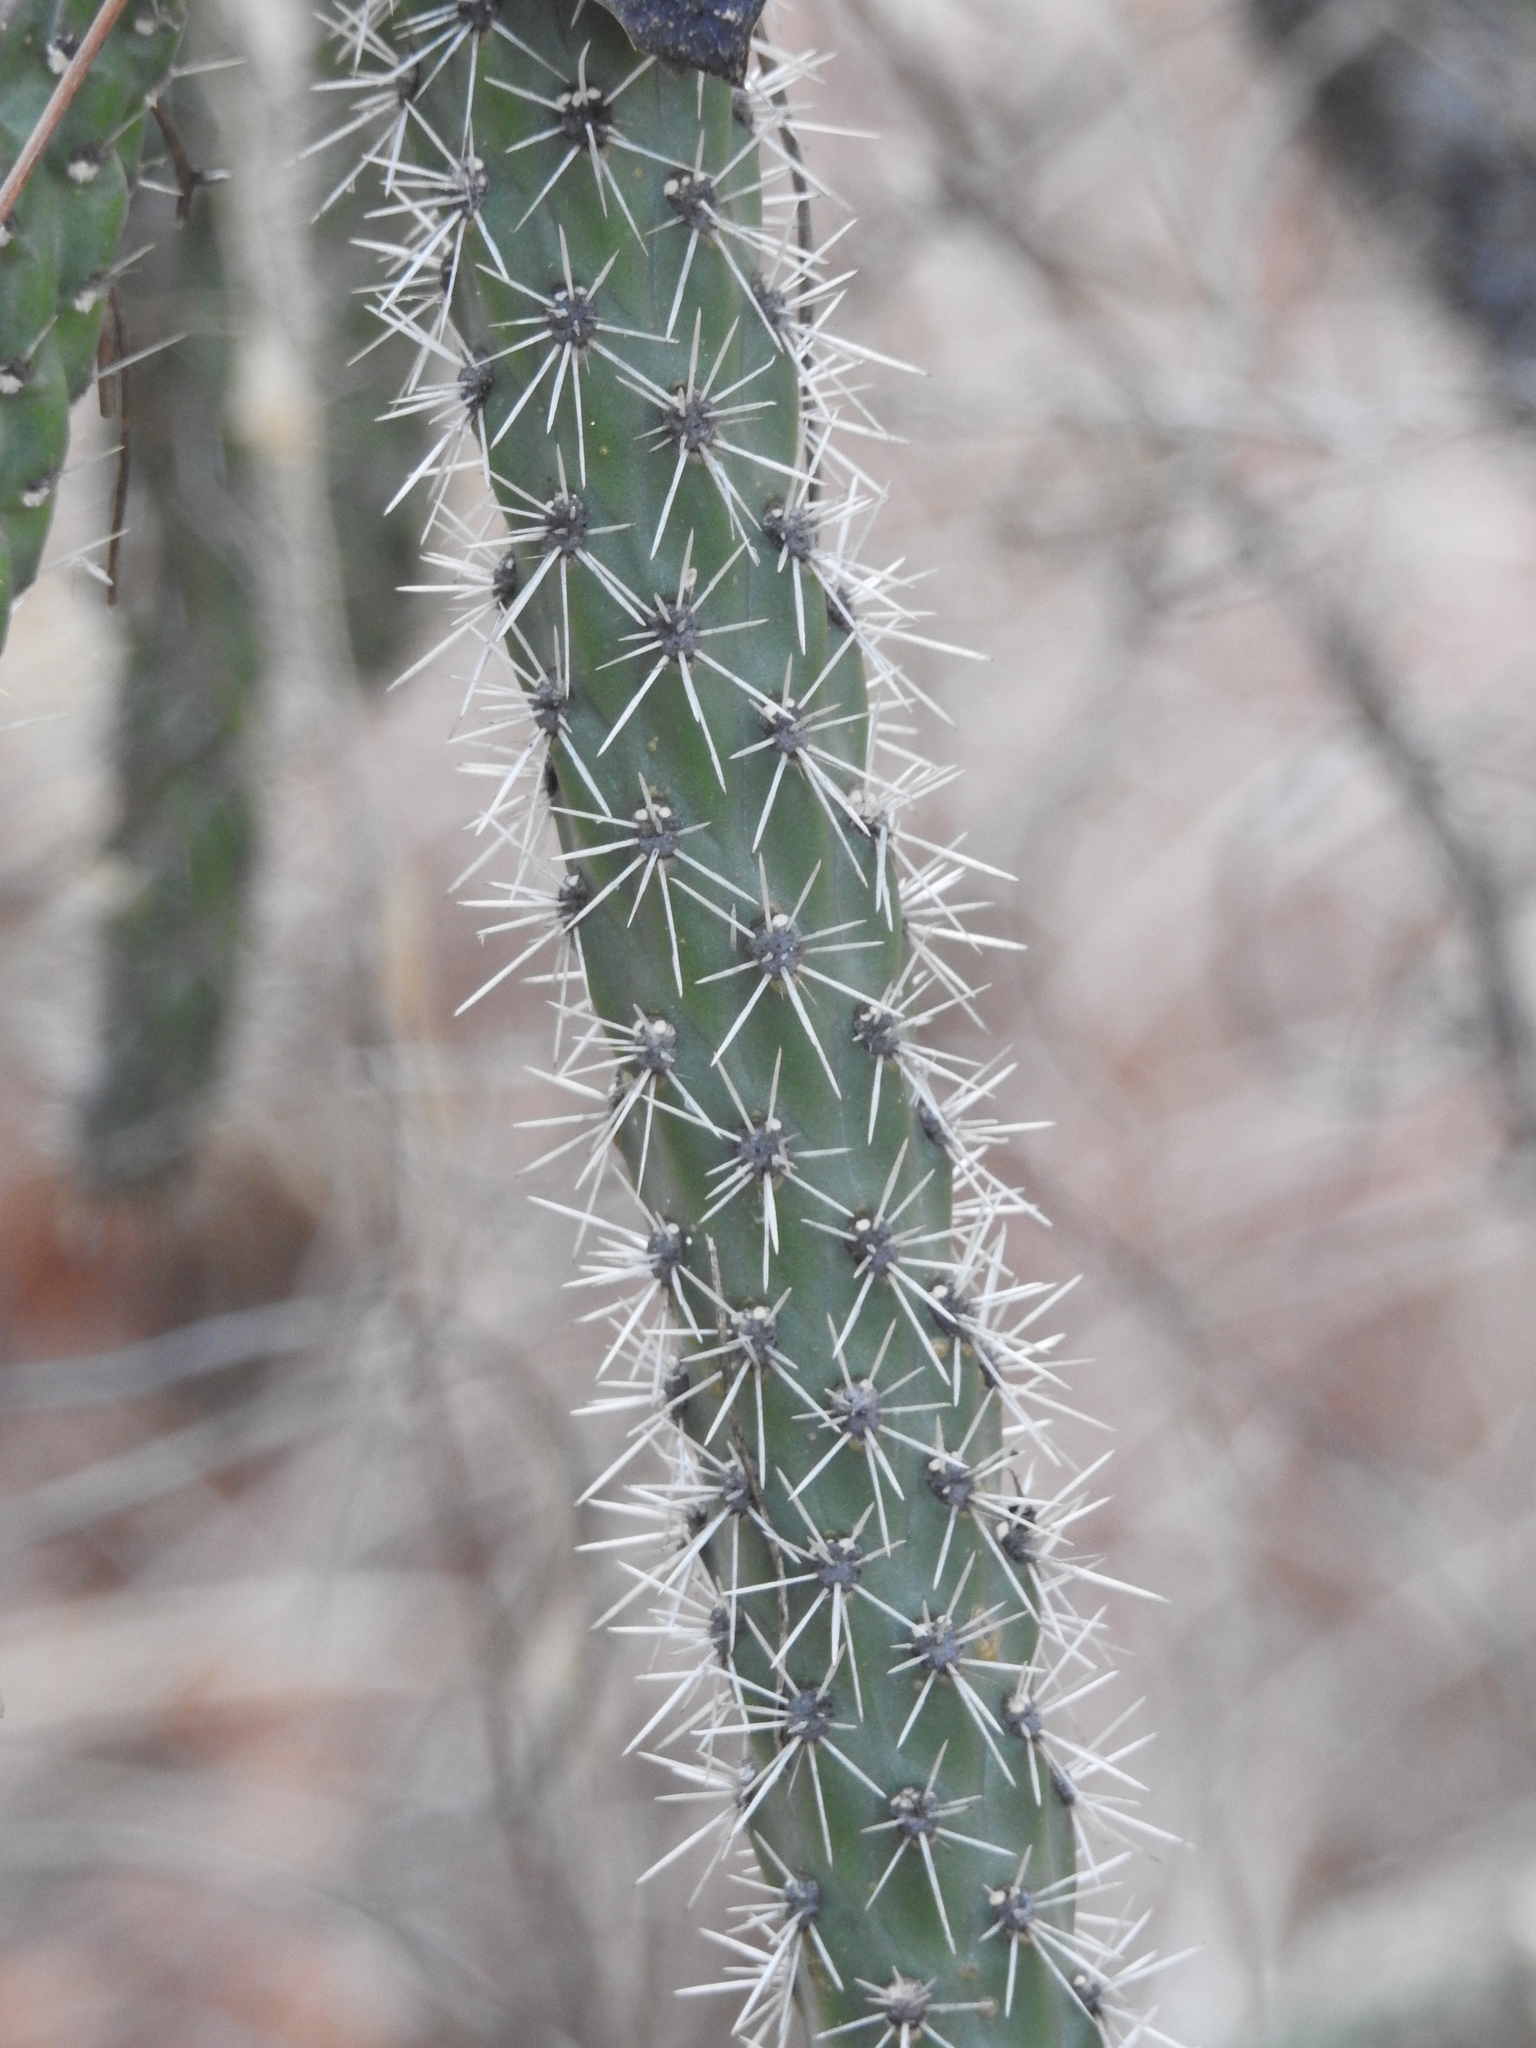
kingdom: Plantae
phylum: Tracheophyta
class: Magnoliopsida
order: Caryophyllales
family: Cactaceae
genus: Cylindropuntia
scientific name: Cylindropuntia imbricata
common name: Candelabrum cactus
